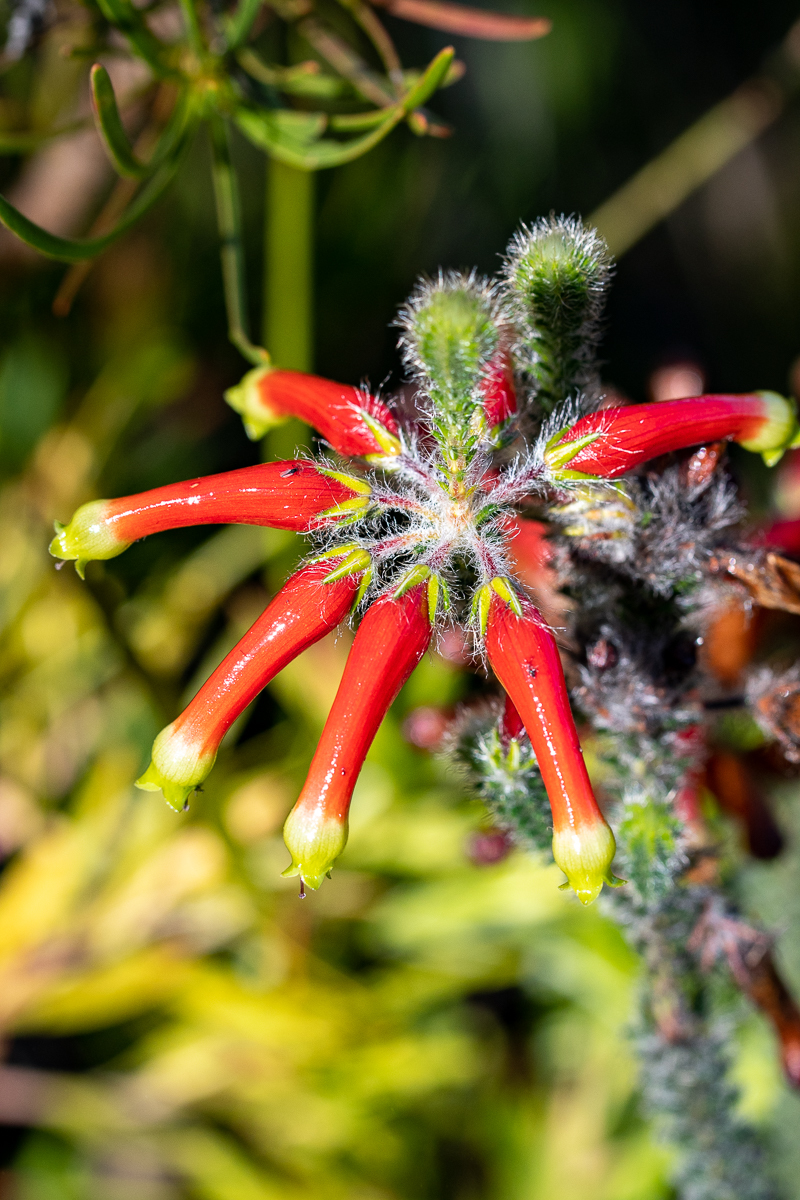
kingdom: Plantae
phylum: Tracheophyta
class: Magnoliopsida
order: Ericales
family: Ericaceae
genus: Erica
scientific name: Erica massonii
